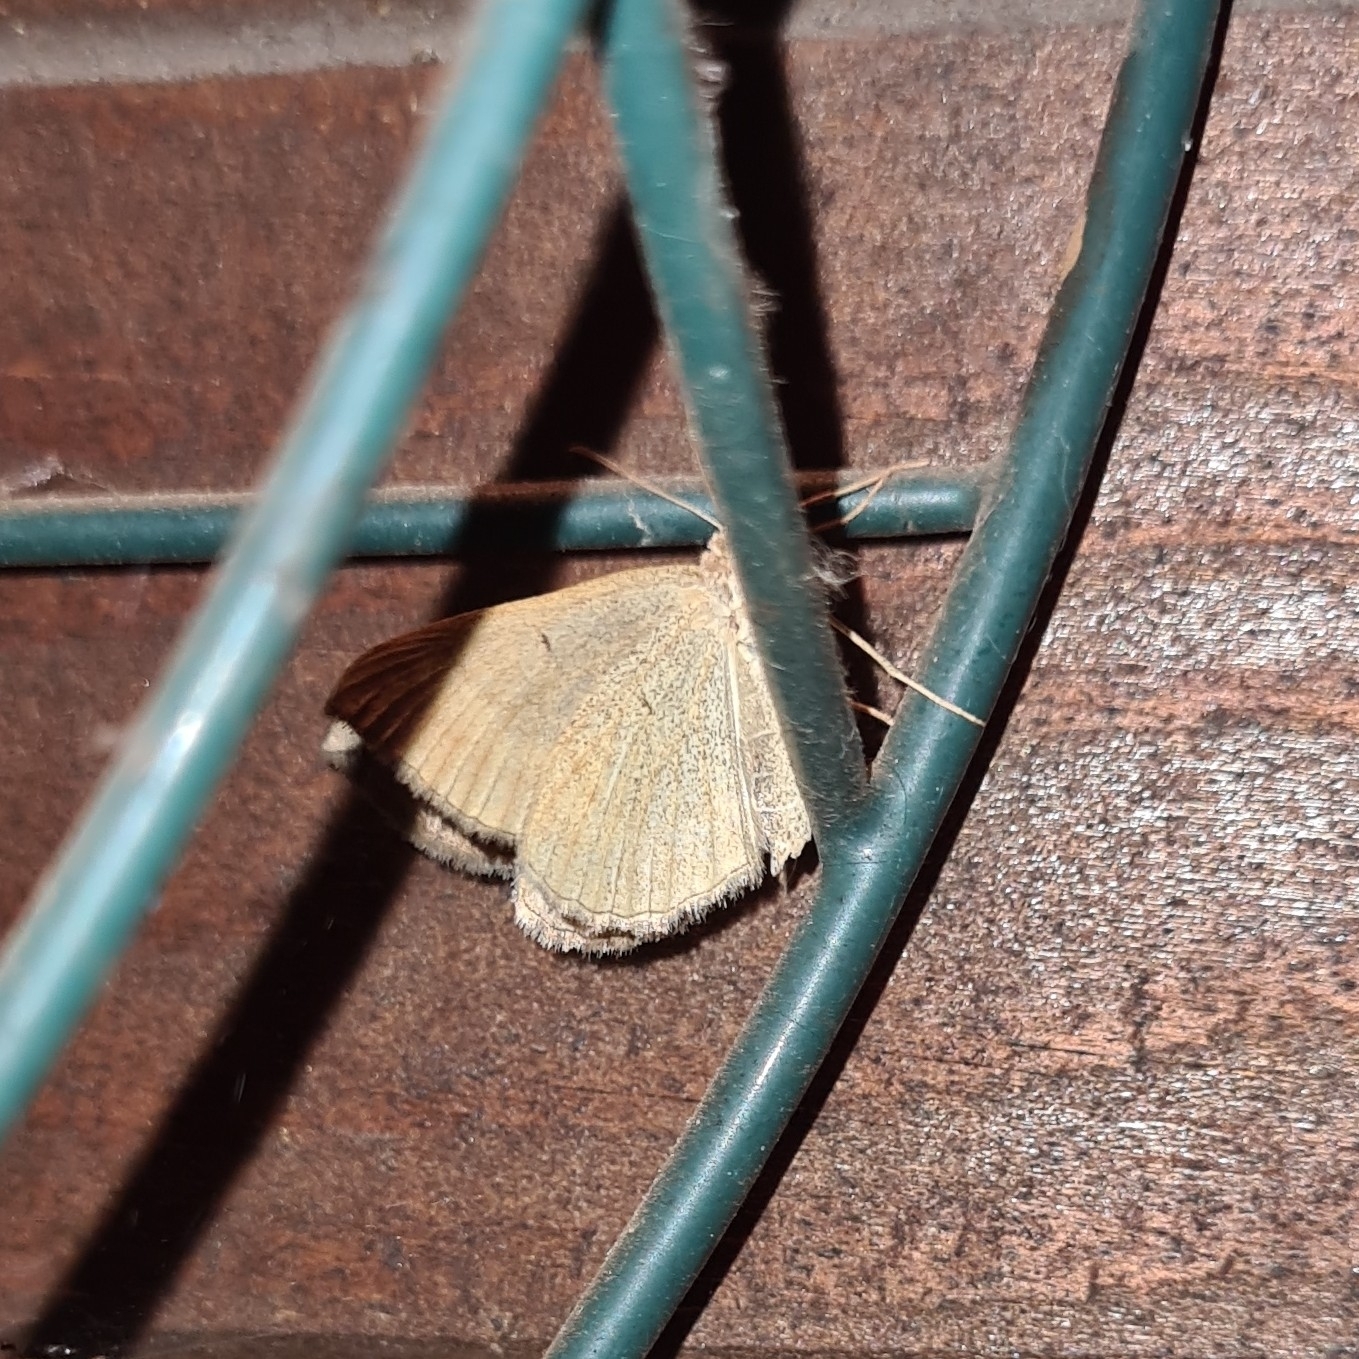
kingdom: Animalia
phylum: Arthropoda
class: Insecta
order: Lepidoptera
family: Geometridae
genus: Scotopteryx
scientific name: Scotopteryx chenopodiata
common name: Shaded broad-bar
